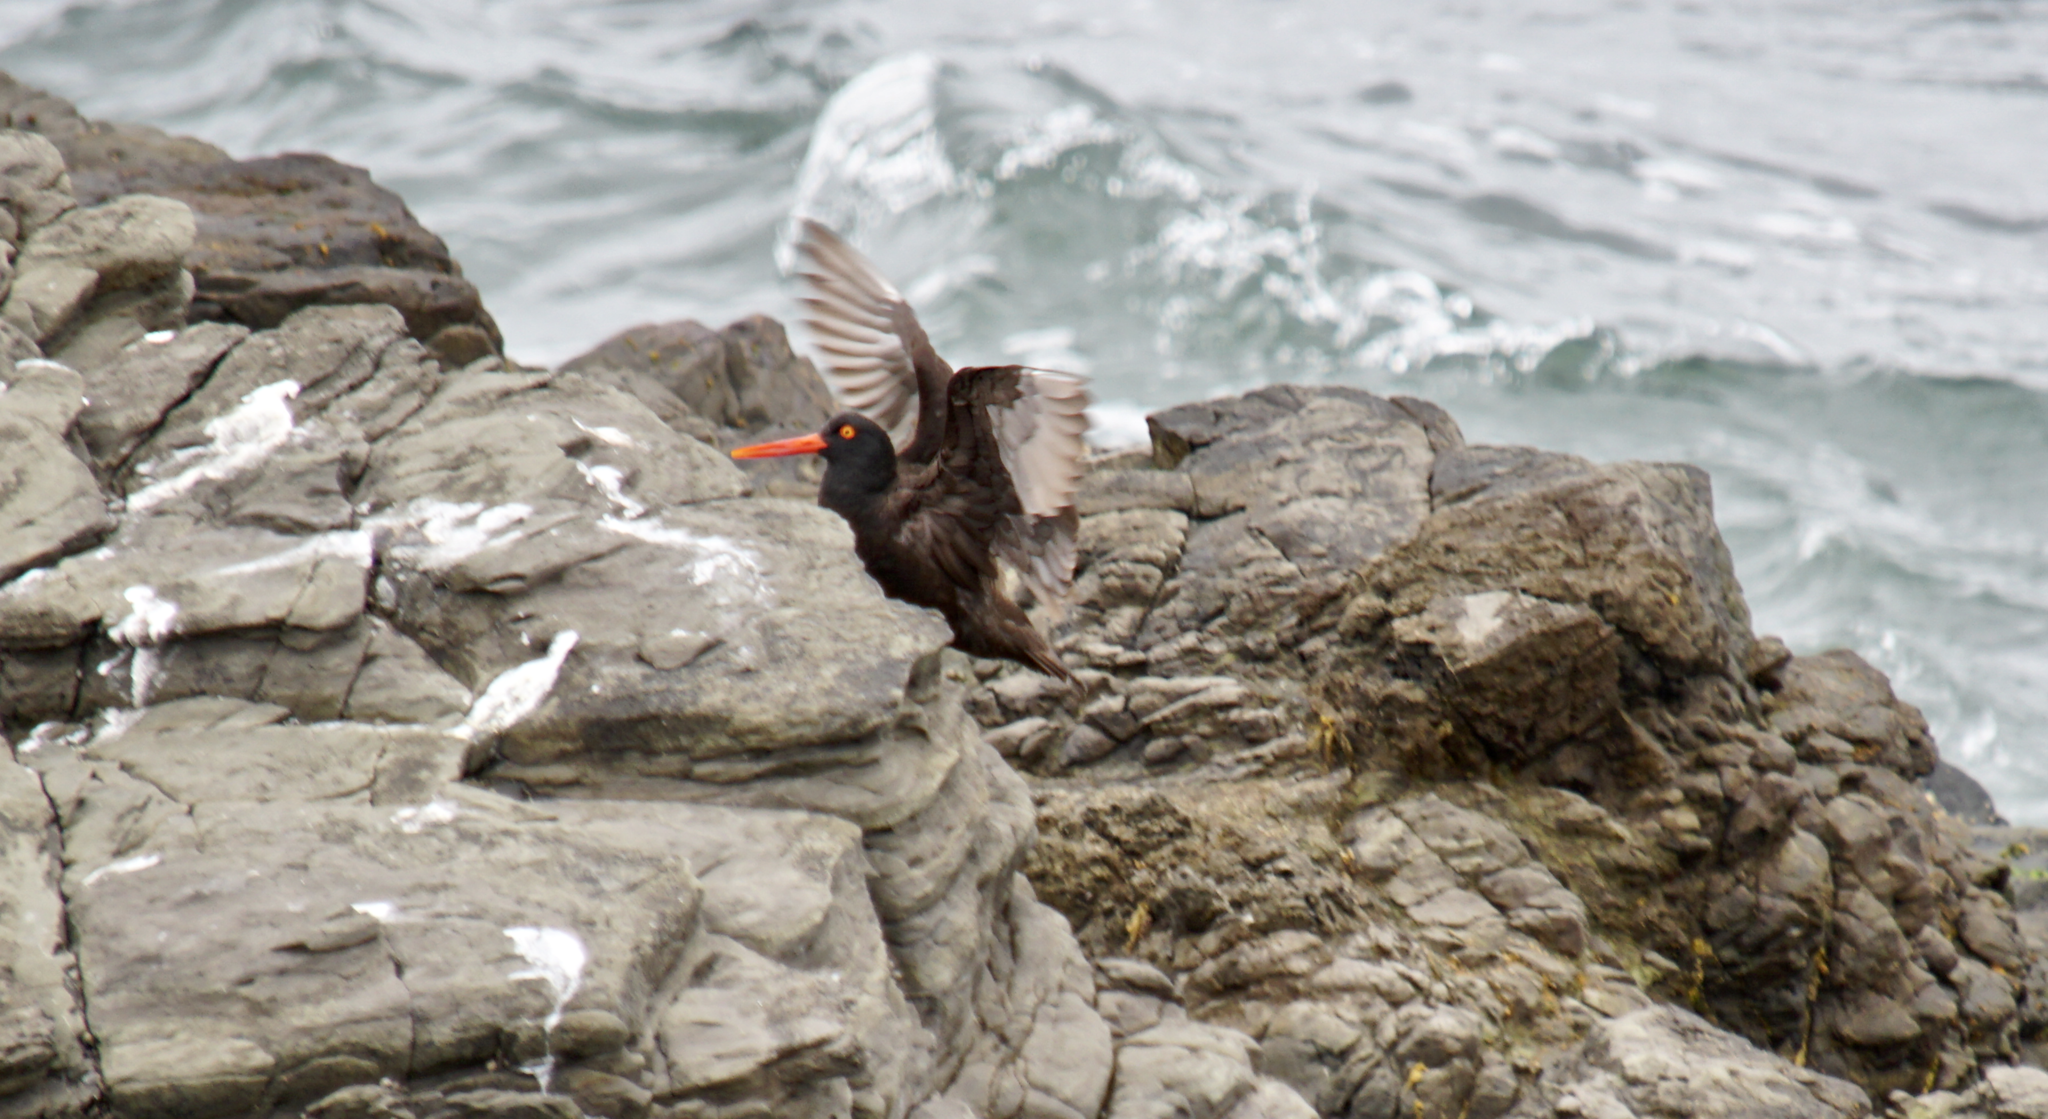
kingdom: Animalia
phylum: Chordata
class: Aves
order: Charadriiformes
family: Haematopodidae
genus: Haematopus
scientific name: Haematopus bachmani
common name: Black oystercatcher
